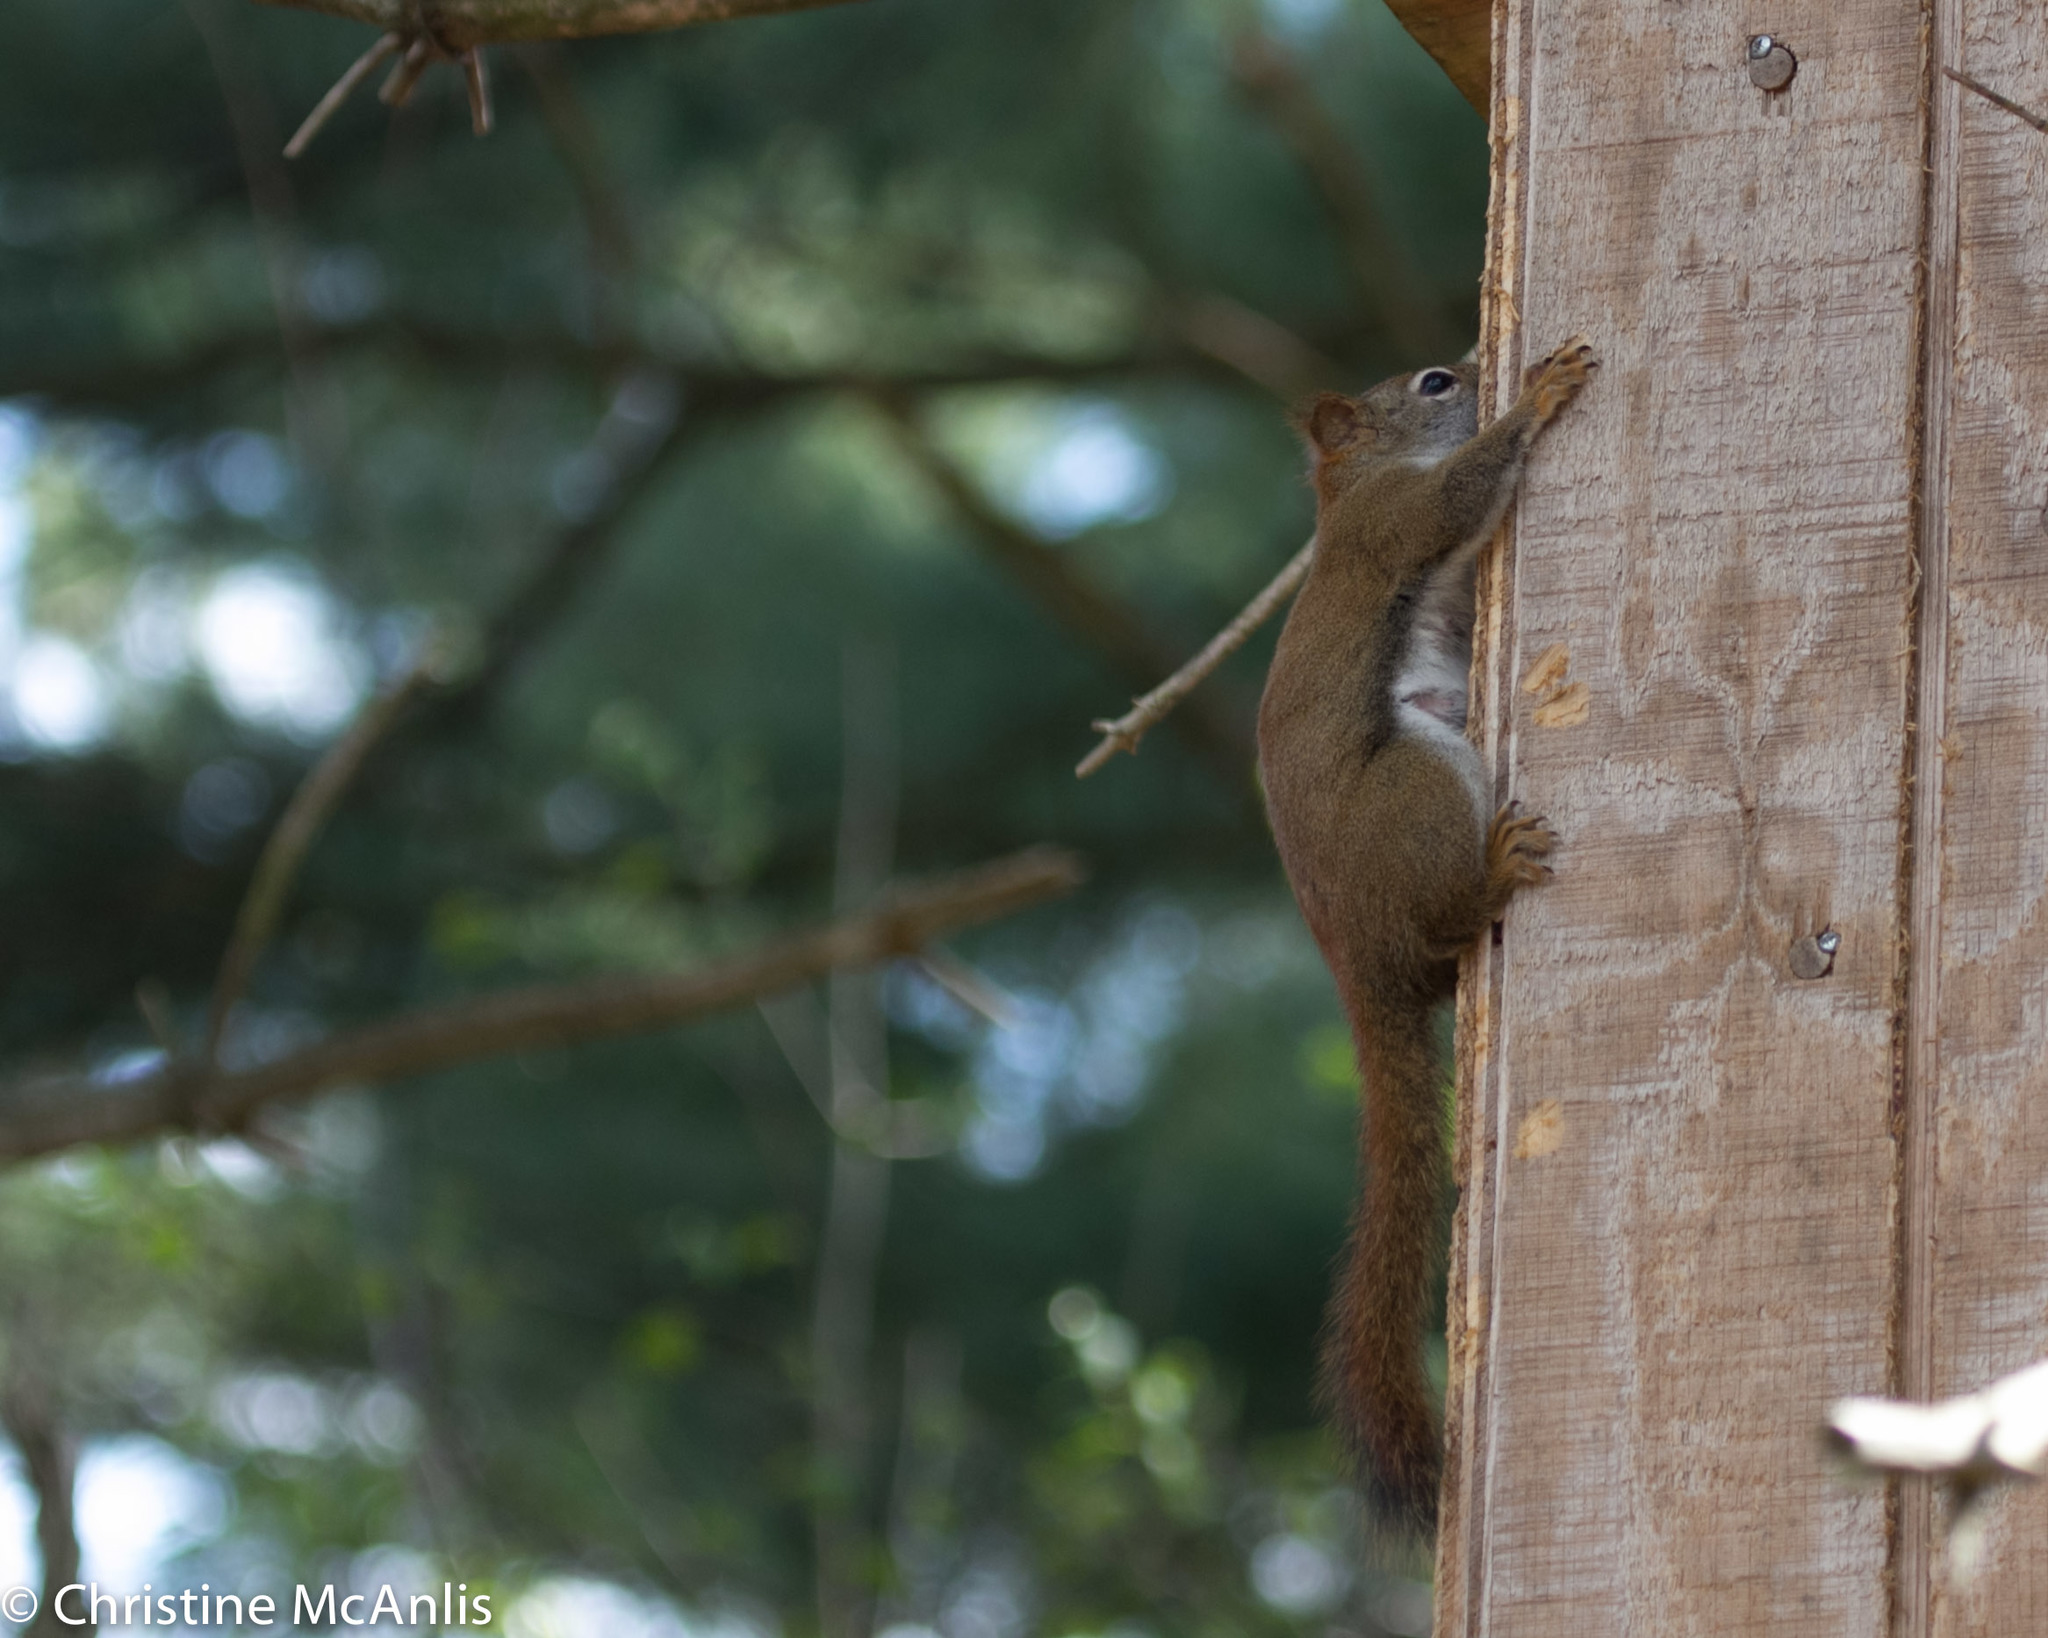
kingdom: Animalia
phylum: Chordata
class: Mammalia
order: Rodentia
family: Sciuridae
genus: Tamiasciurus
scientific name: Tamiasciurus hudsonicus
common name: Red squirrel
